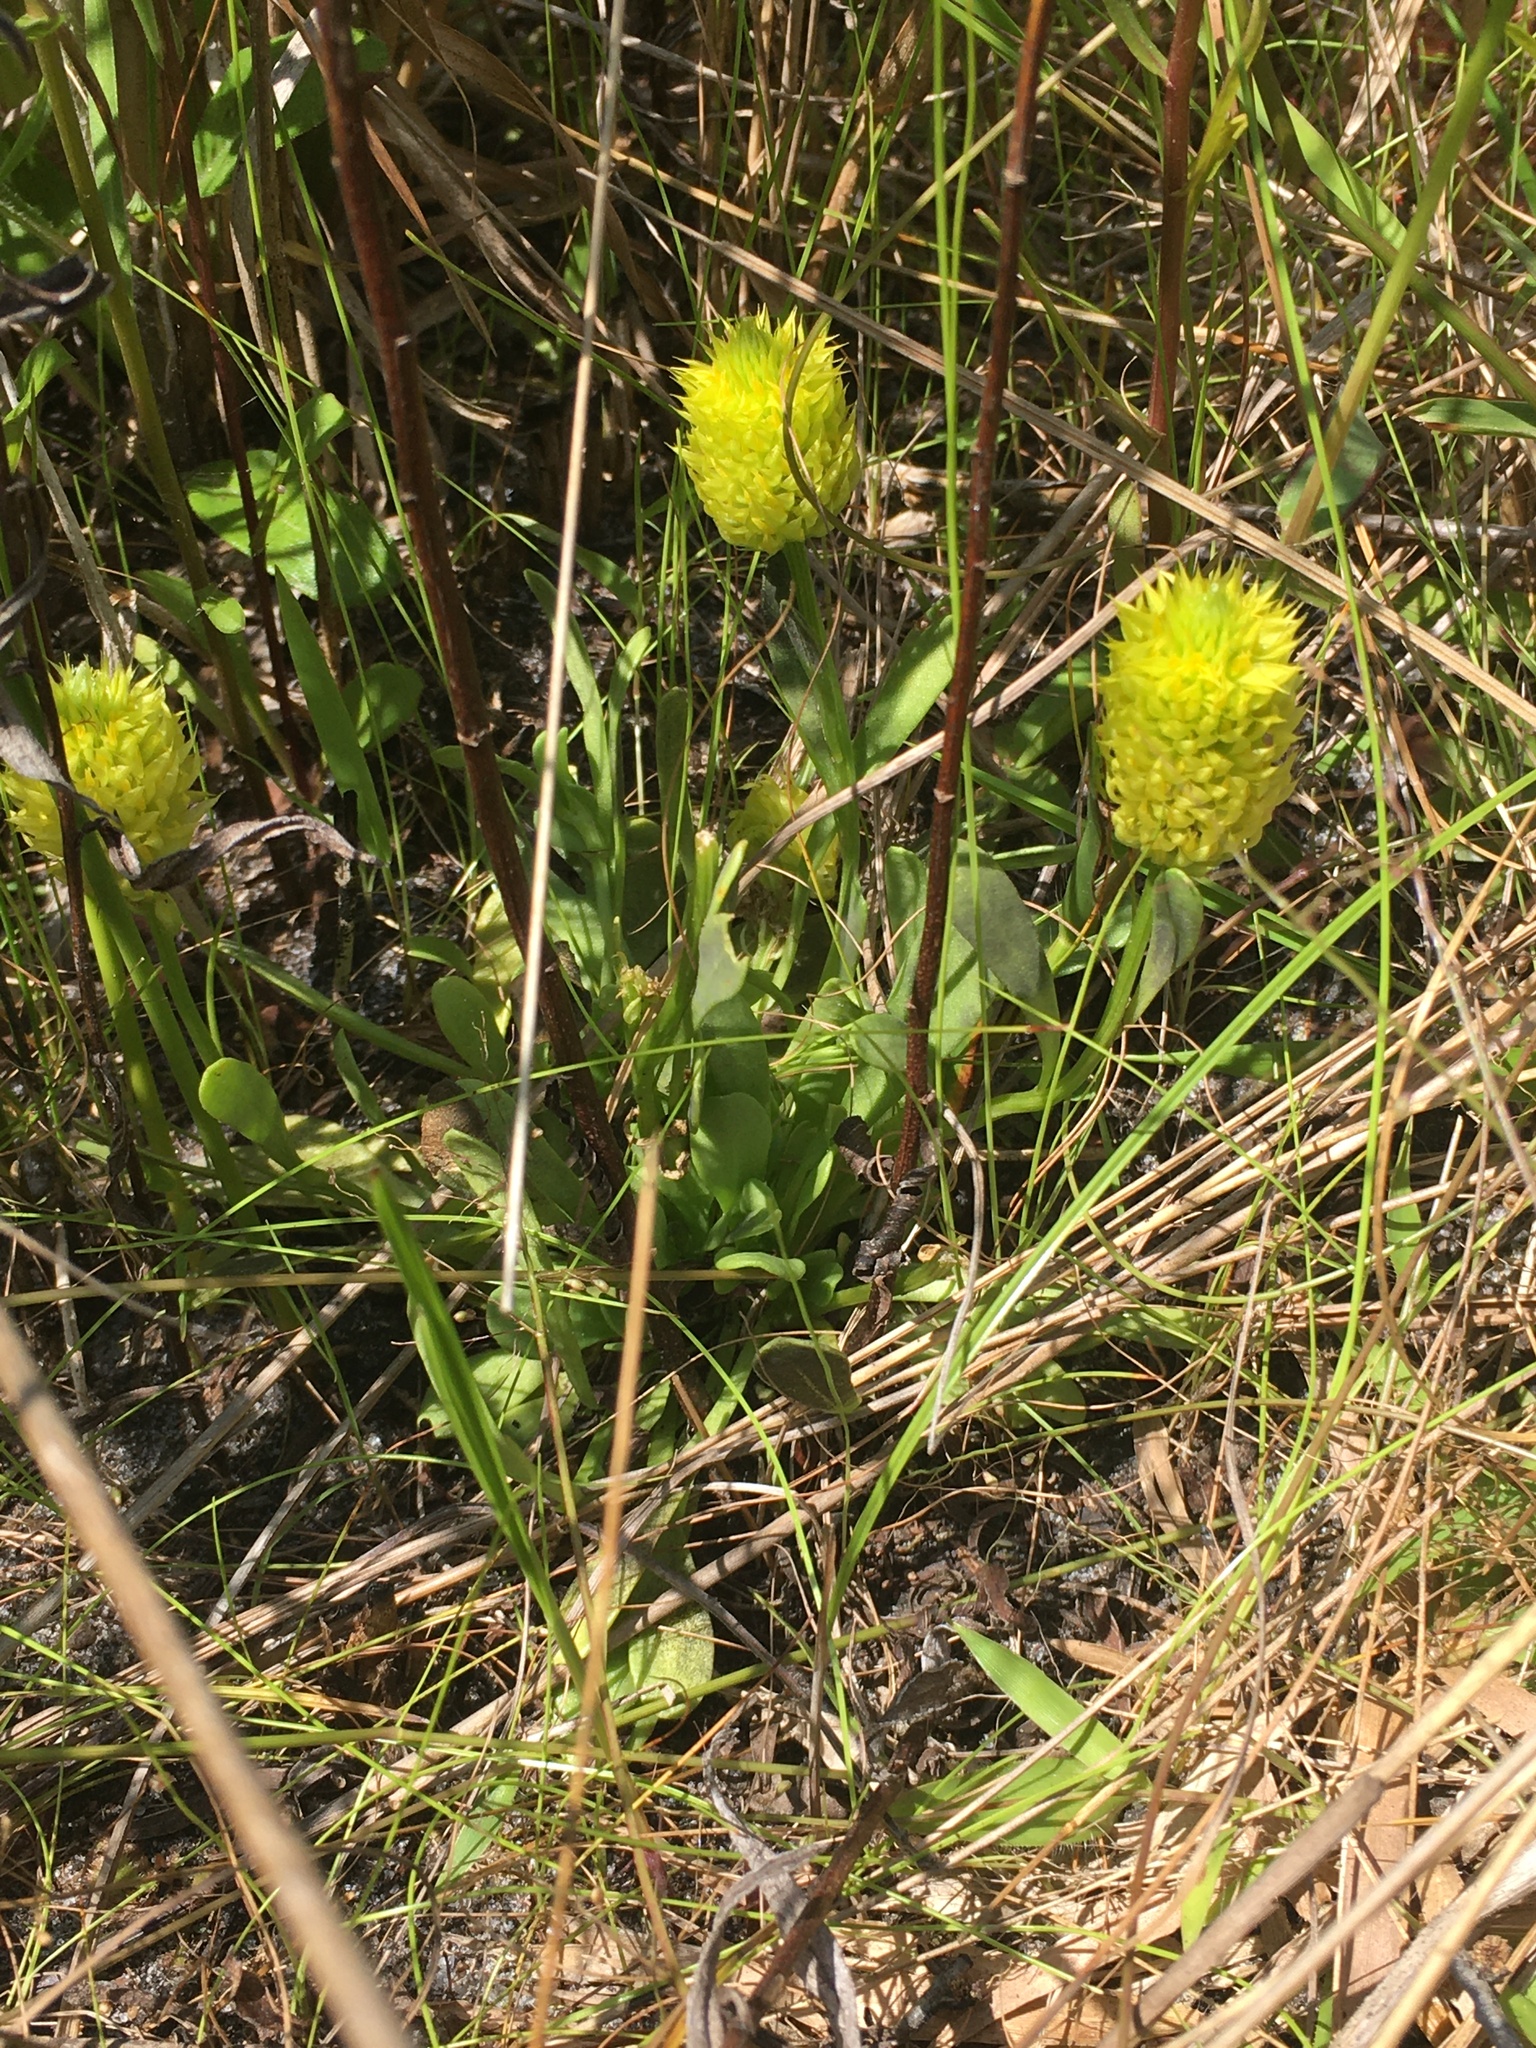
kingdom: Plantae
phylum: Tracheophyta
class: Magnoliopsida
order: Fabales
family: Polygalaceae
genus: Polygala
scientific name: Polygala nana
